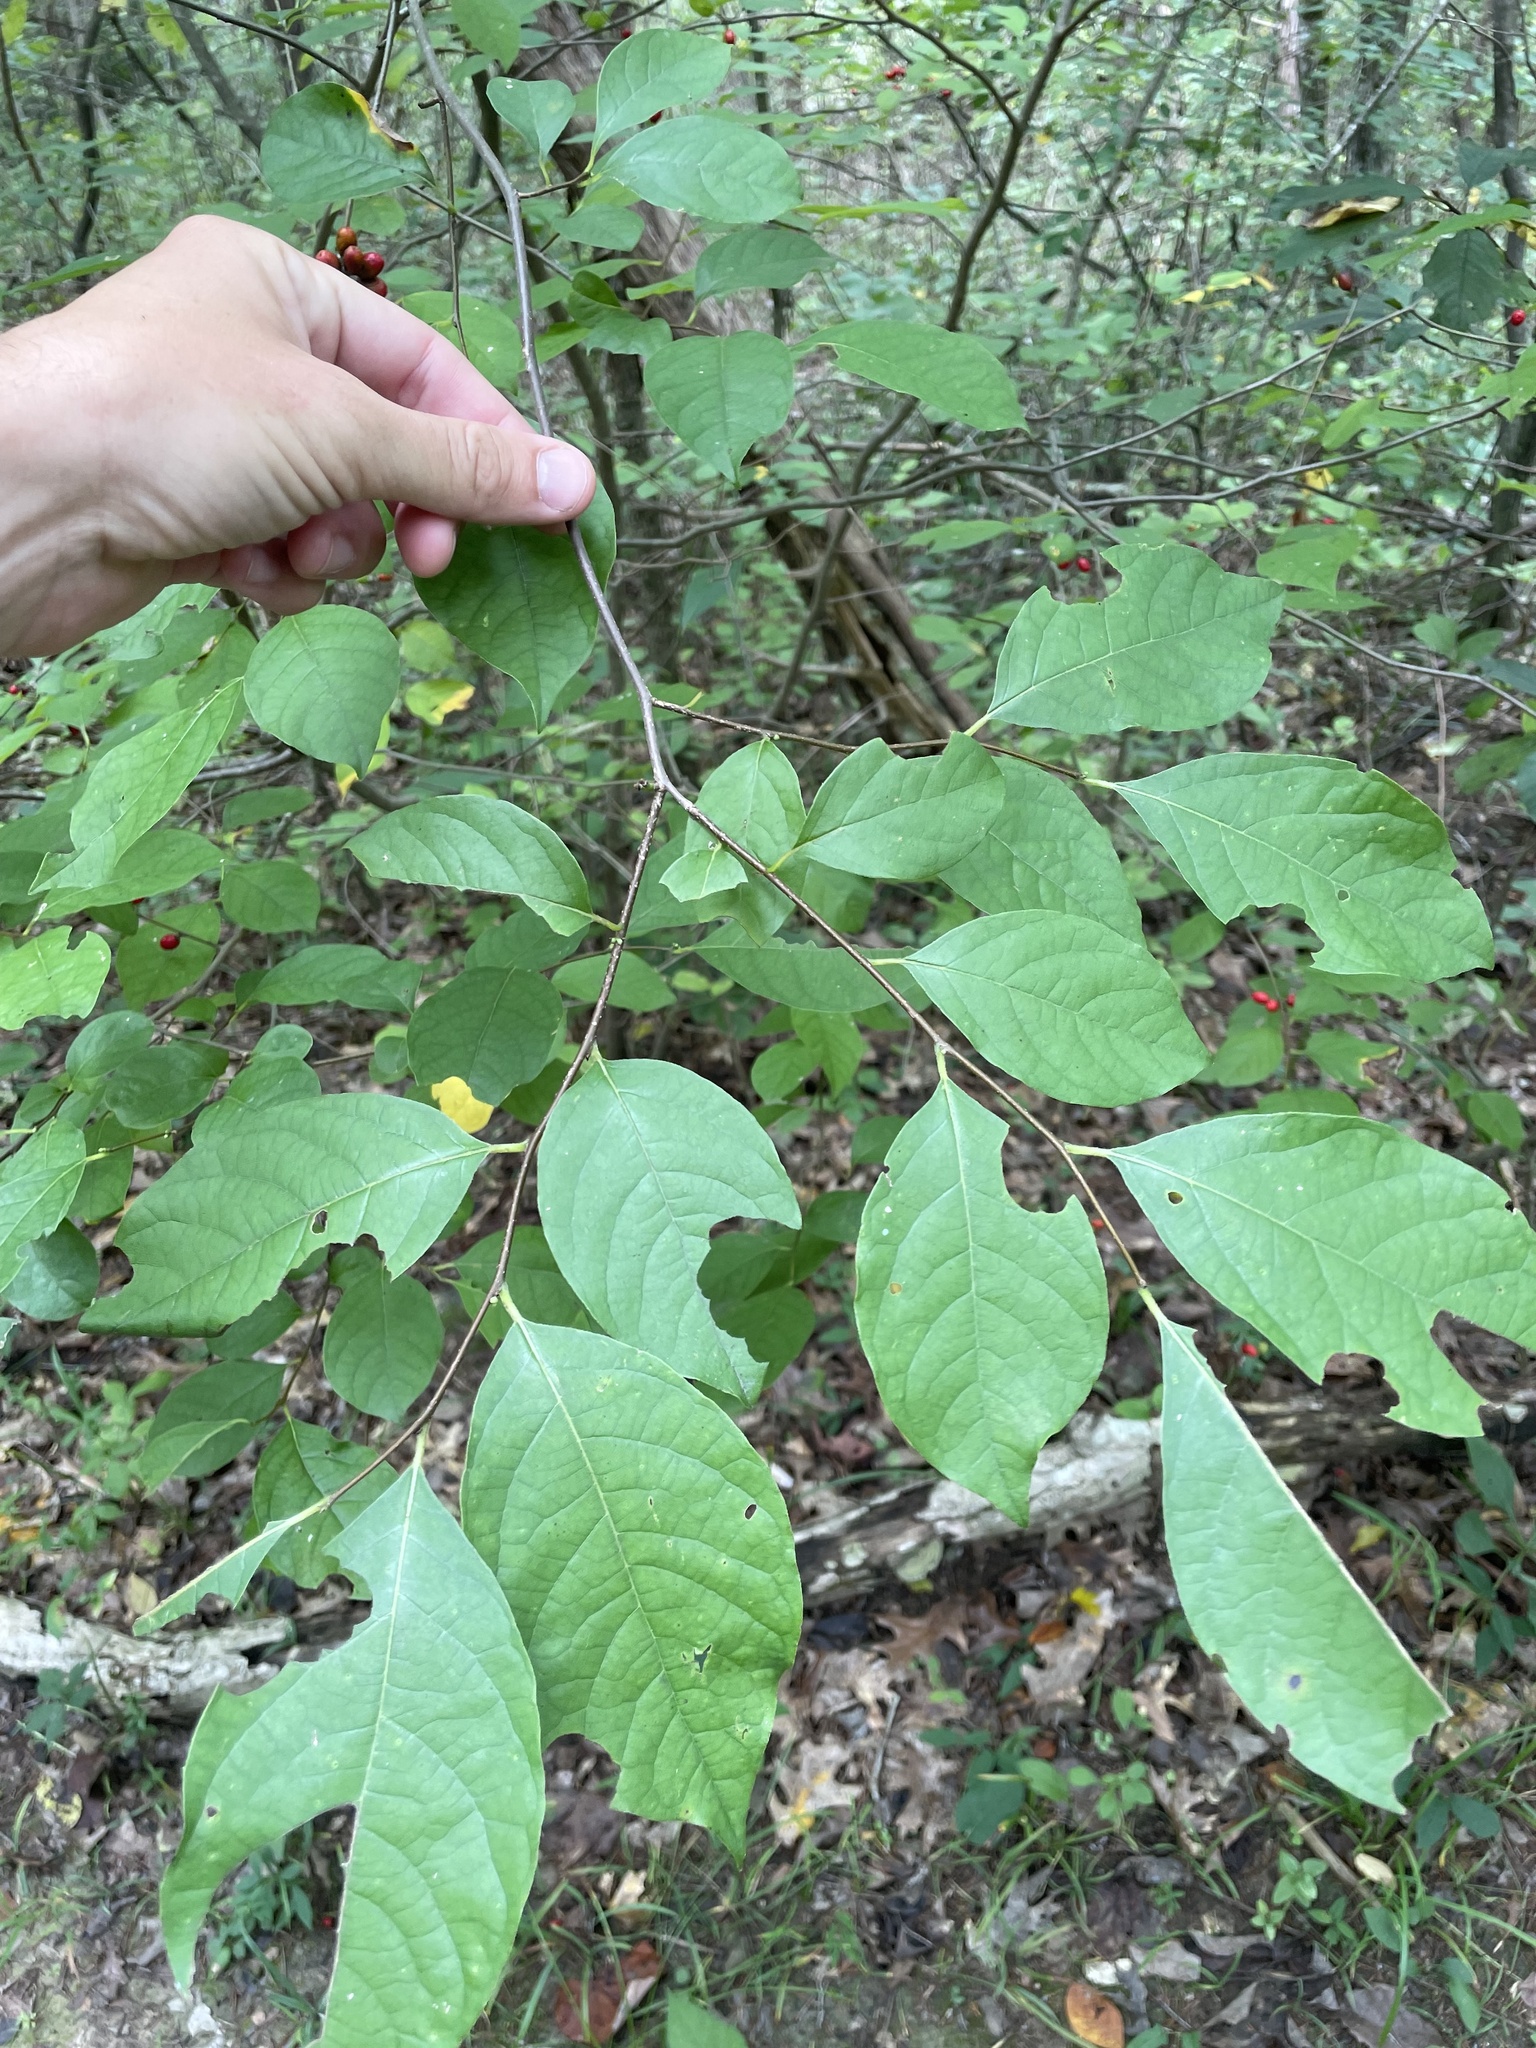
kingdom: Plantae
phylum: Tracheophyta
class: Magnoliopsida
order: Laurales
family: Lauraceae
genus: Lindera
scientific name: Lindera benzoin
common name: Spicebush
